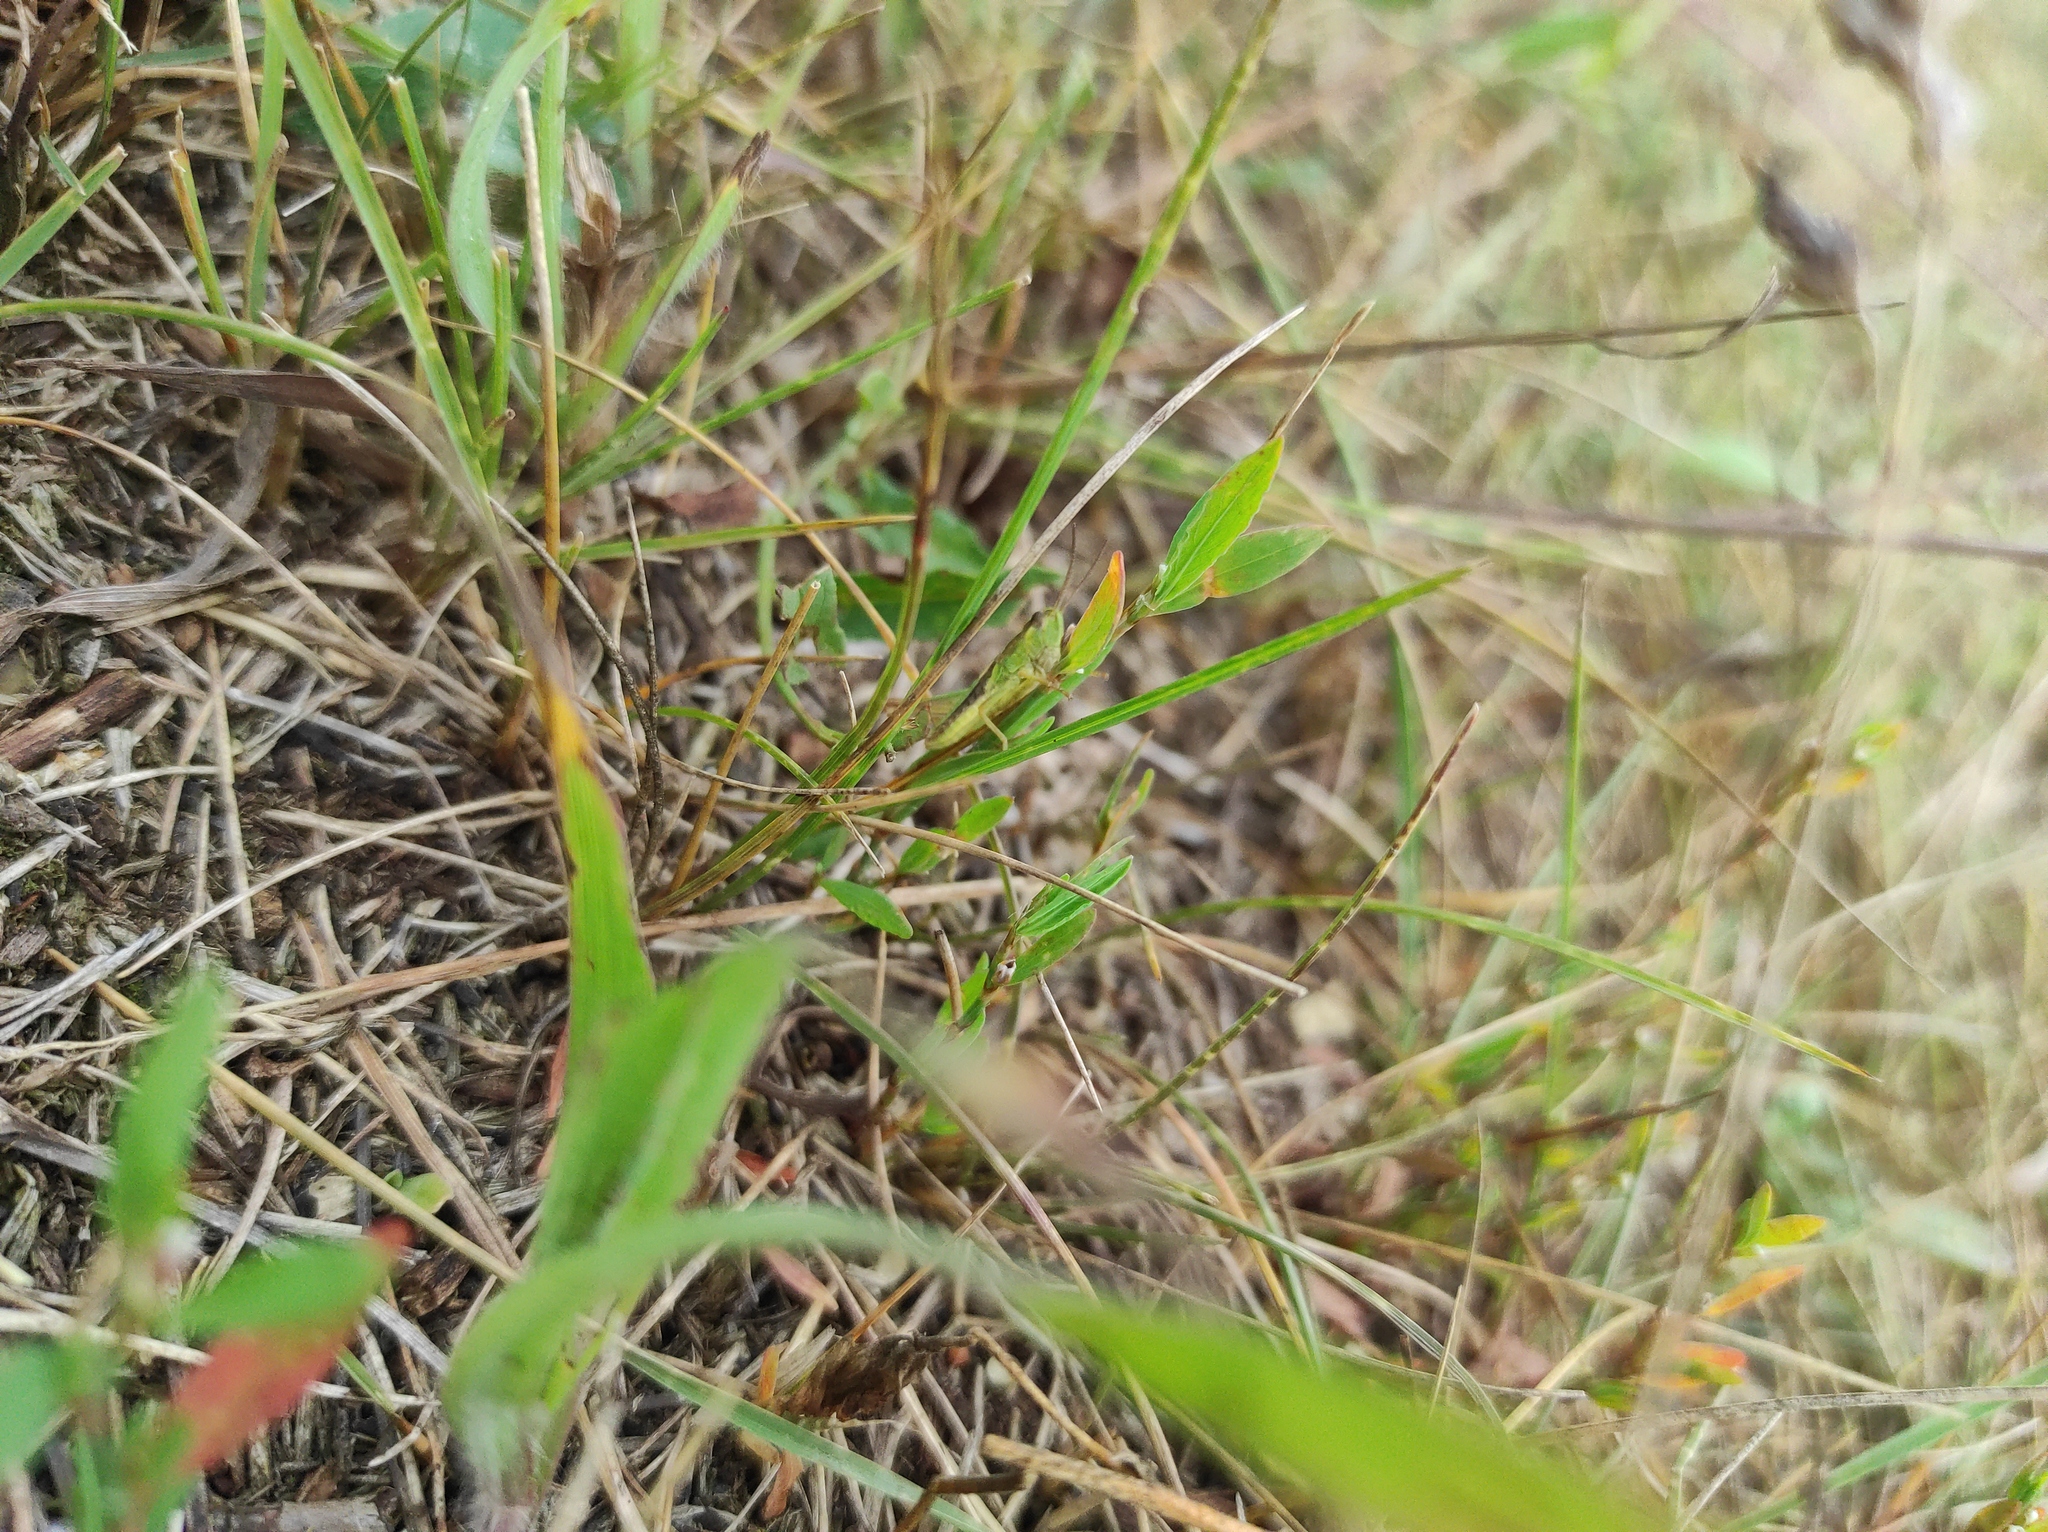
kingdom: Animalia
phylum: Arthropoda
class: Insecta
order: Orthoptera
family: Acrididae
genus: Chorthippus
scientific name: Chorthippus fallax
